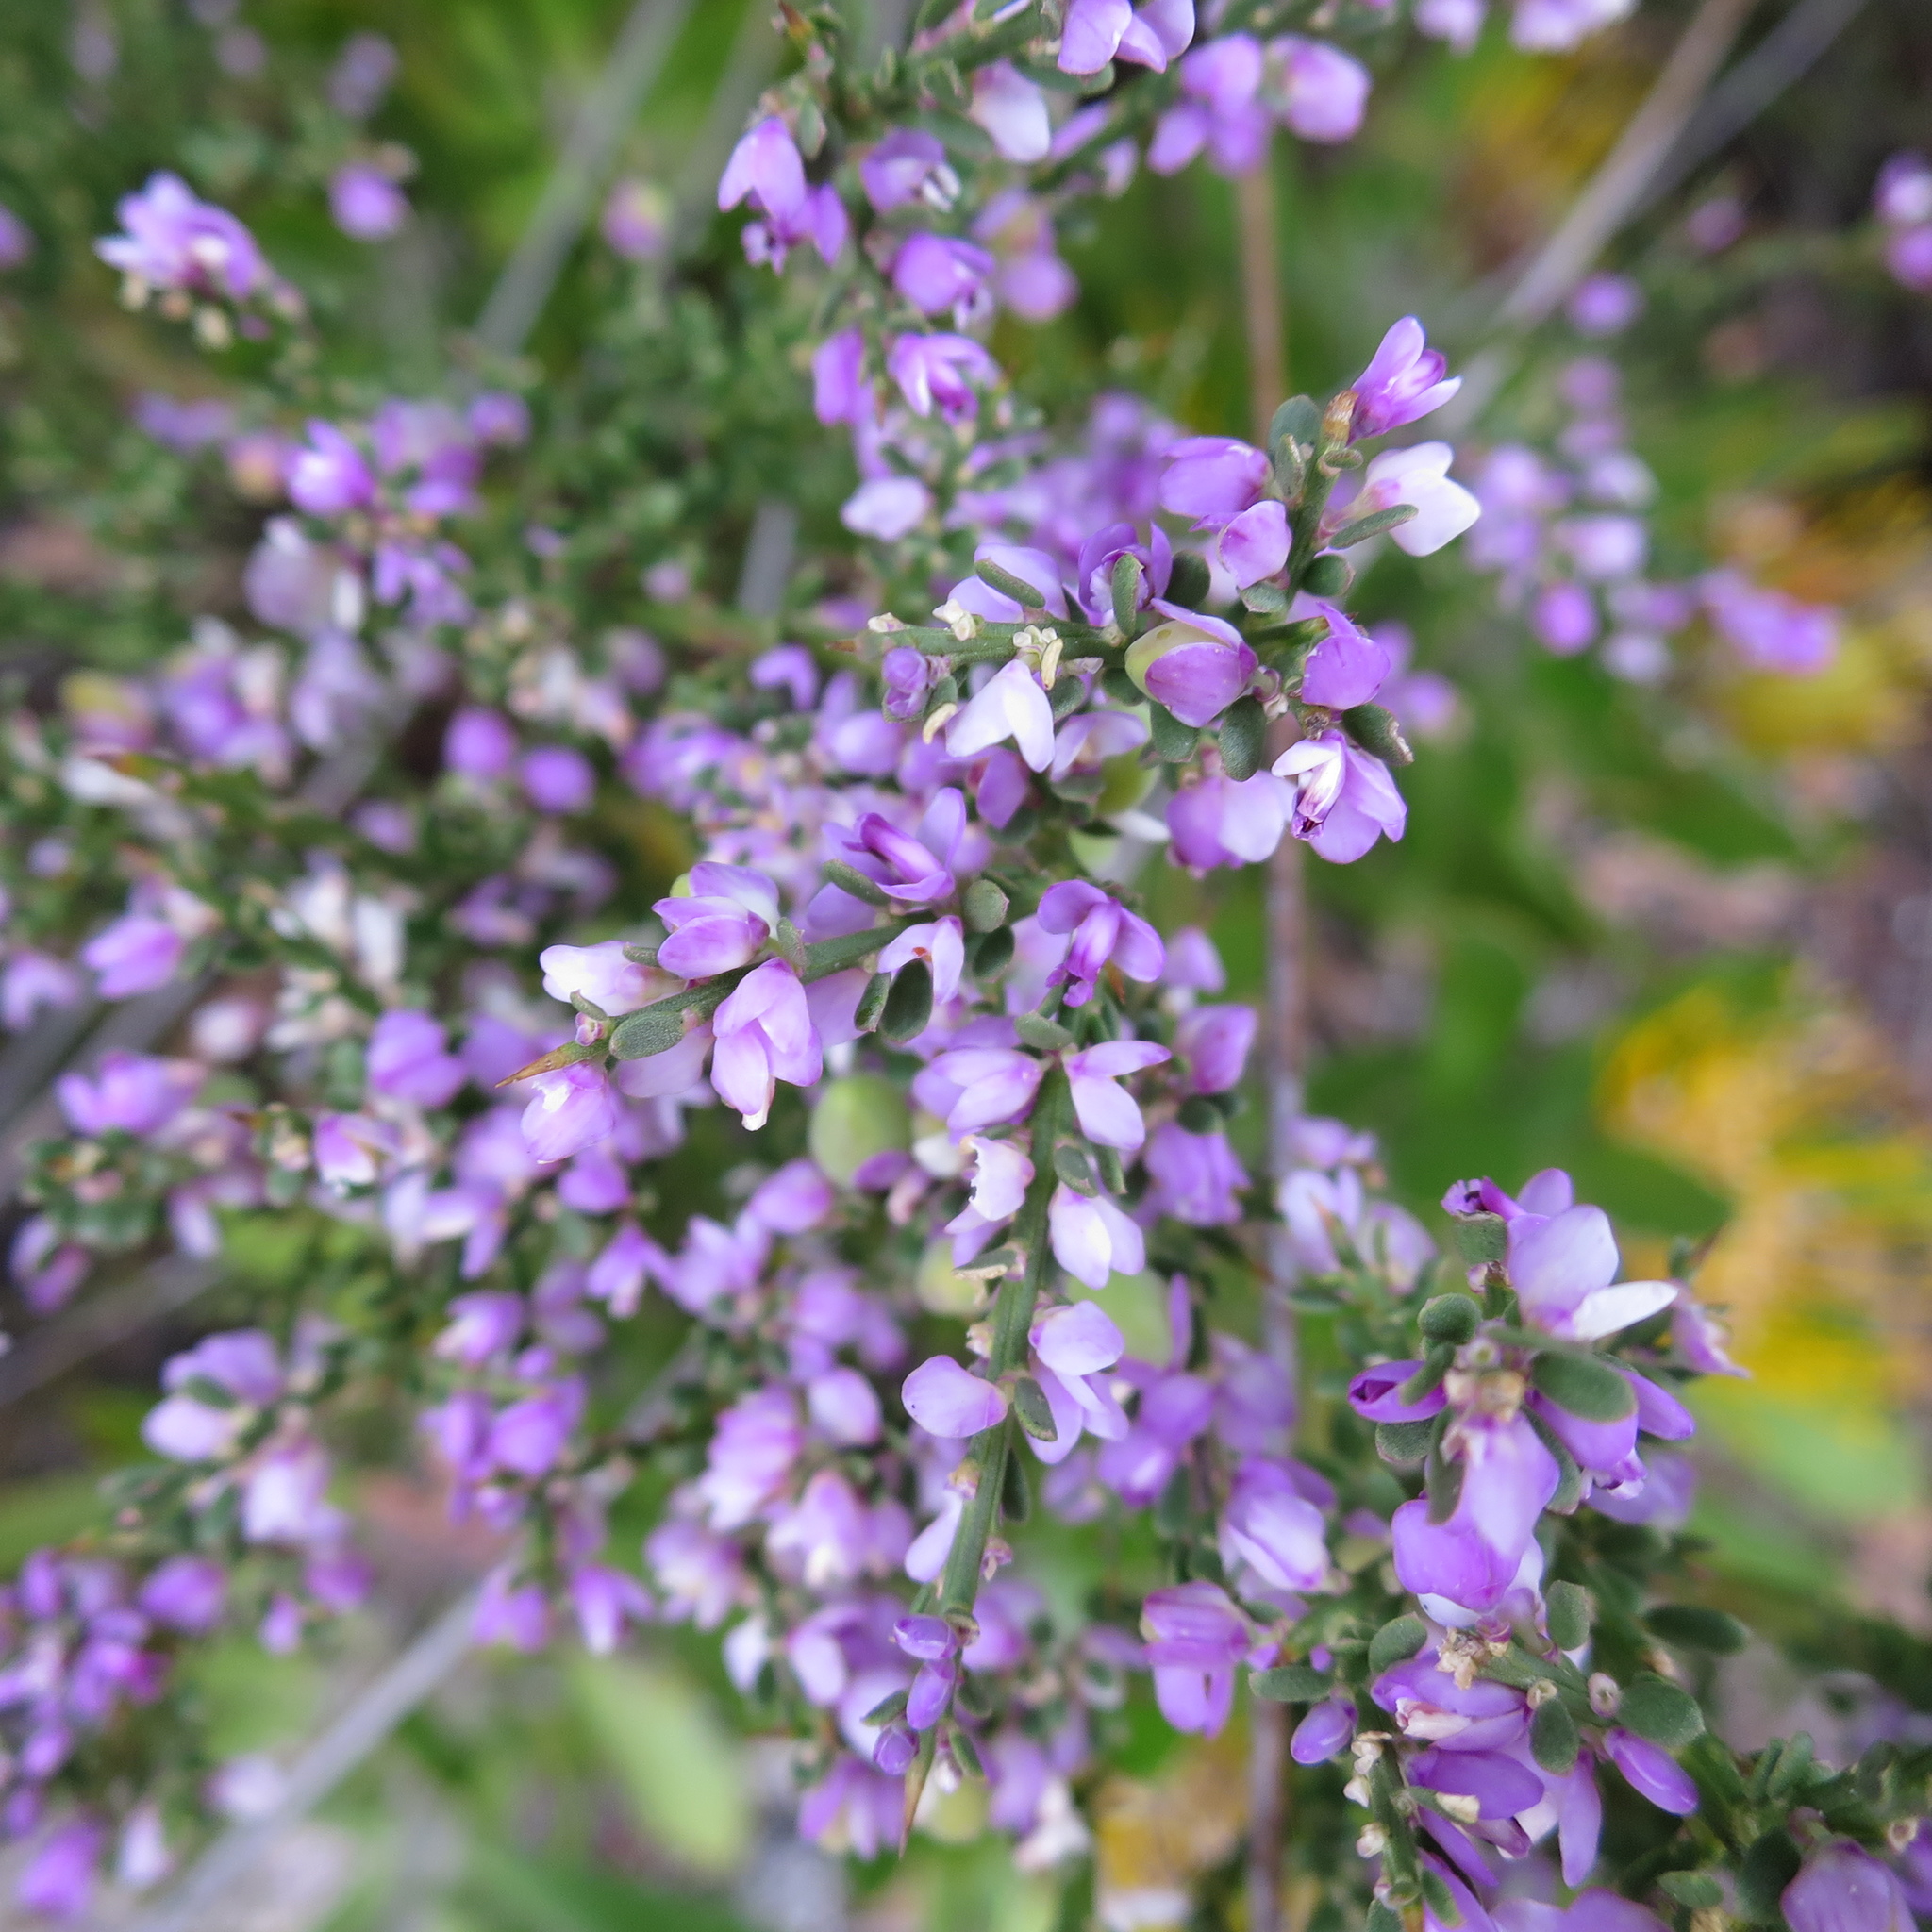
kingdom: Plantae
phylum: Tracheophyta
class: Magnoliopsida
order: Fabales
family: Polygalaceae
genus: Muraltia
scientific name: Muraltia spinosa
